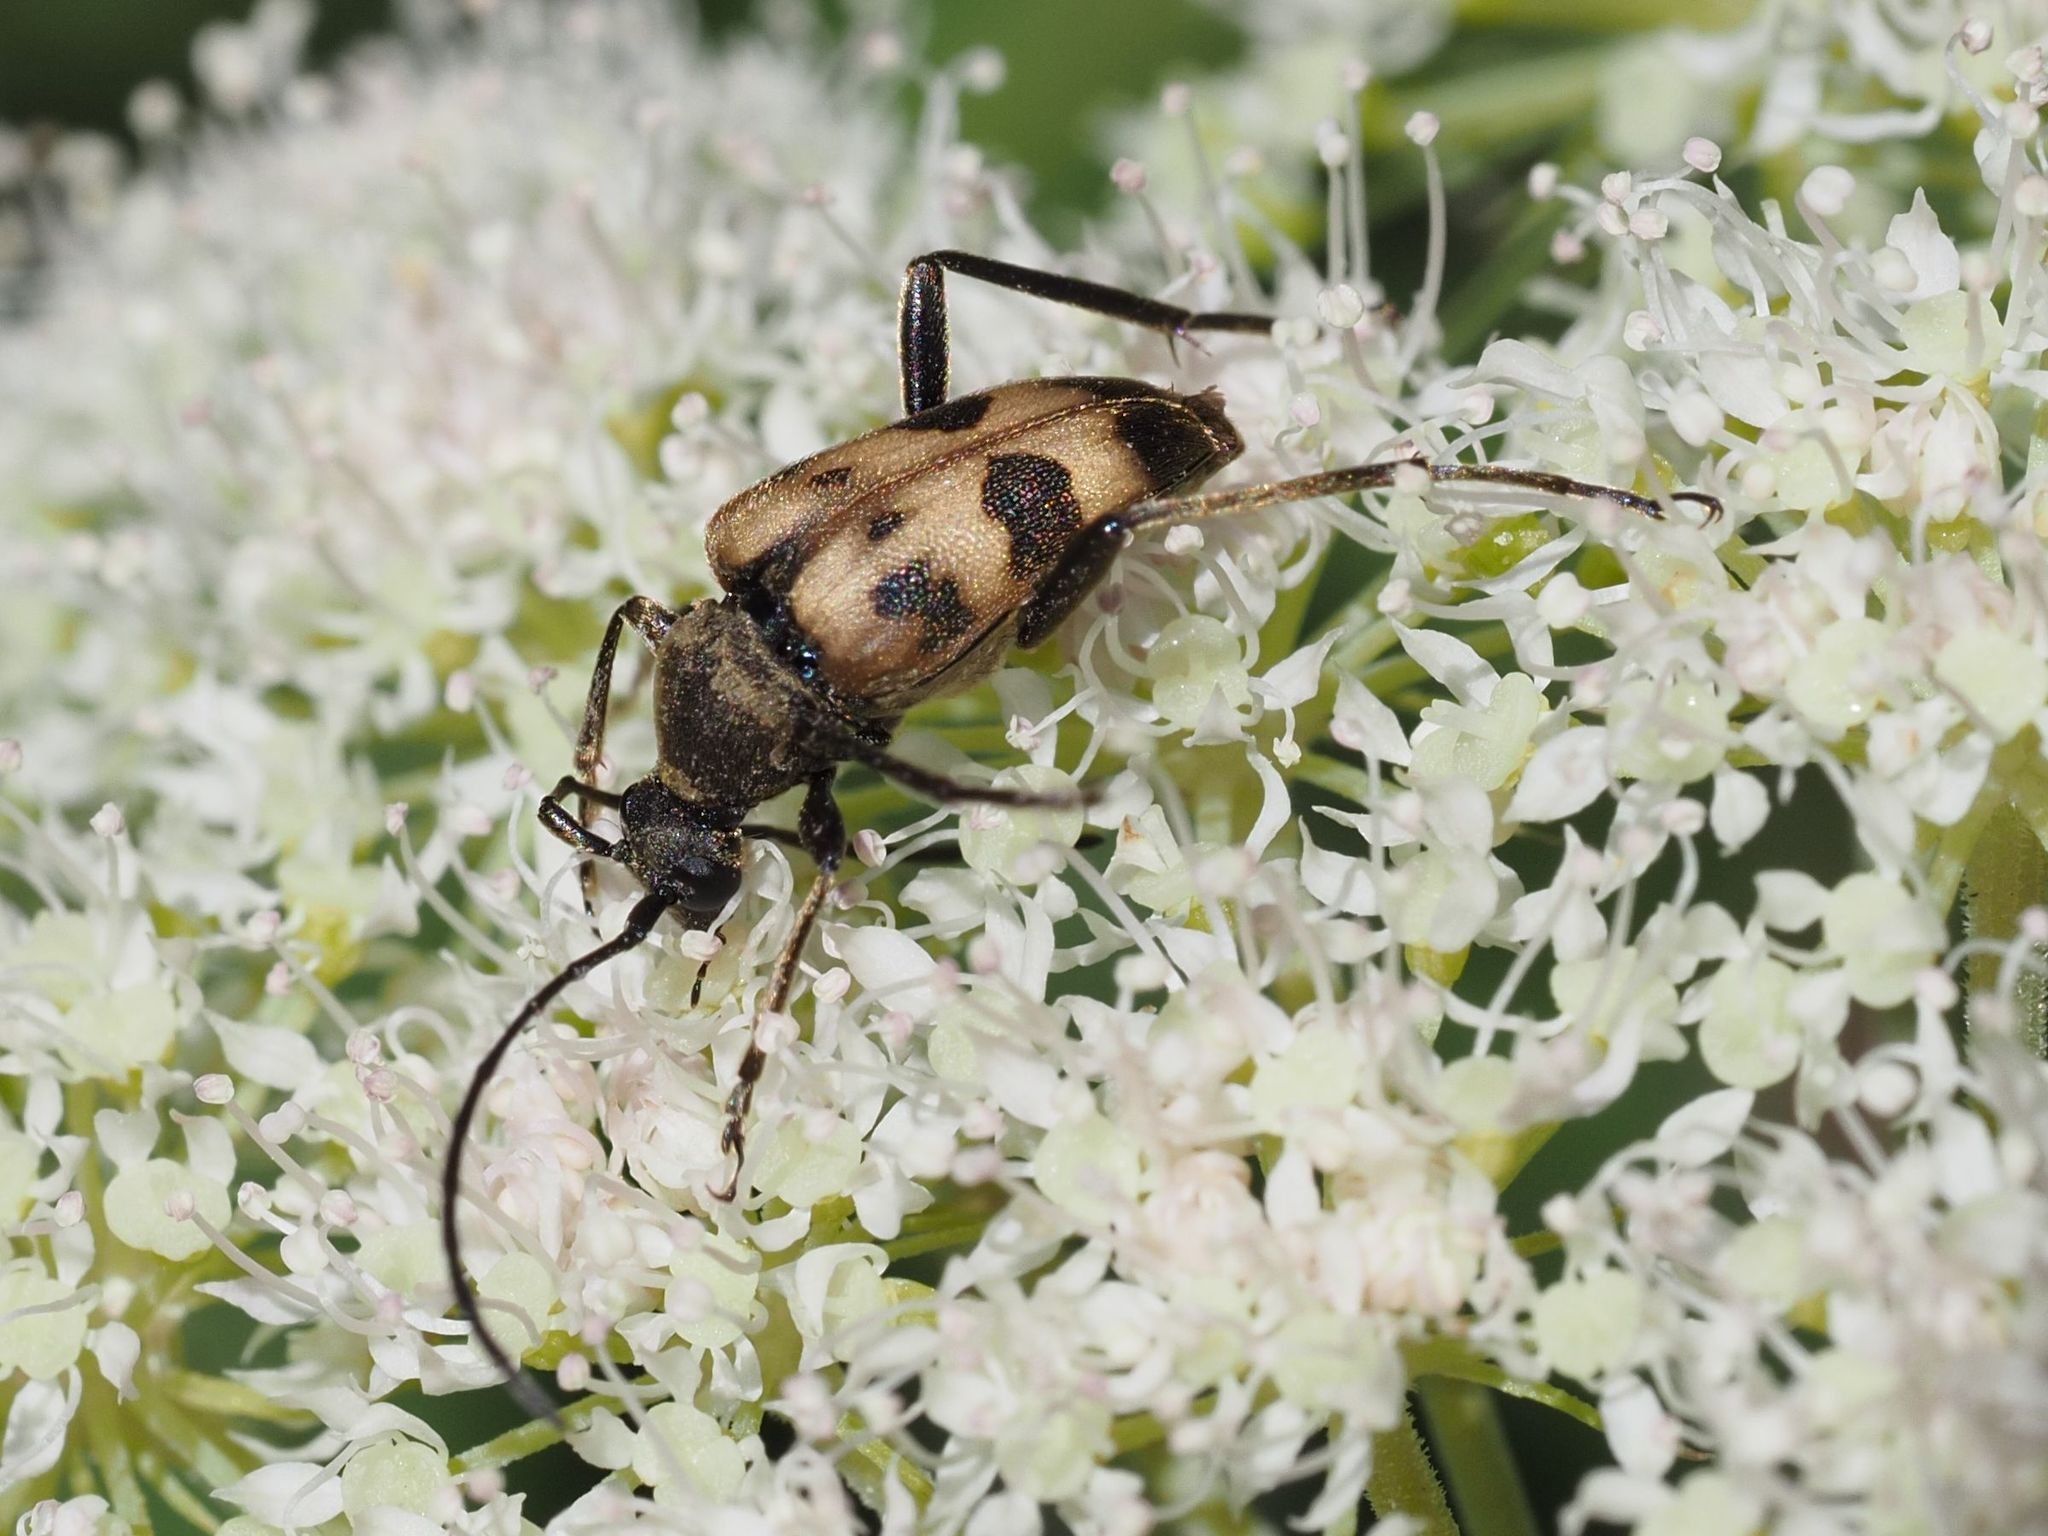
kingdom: Animalia
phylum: Arthropoda
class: Insecta
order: Coleoptera
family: Cerambycidae
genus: Pachytodes
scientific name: Pachytodes cerambyciformis
